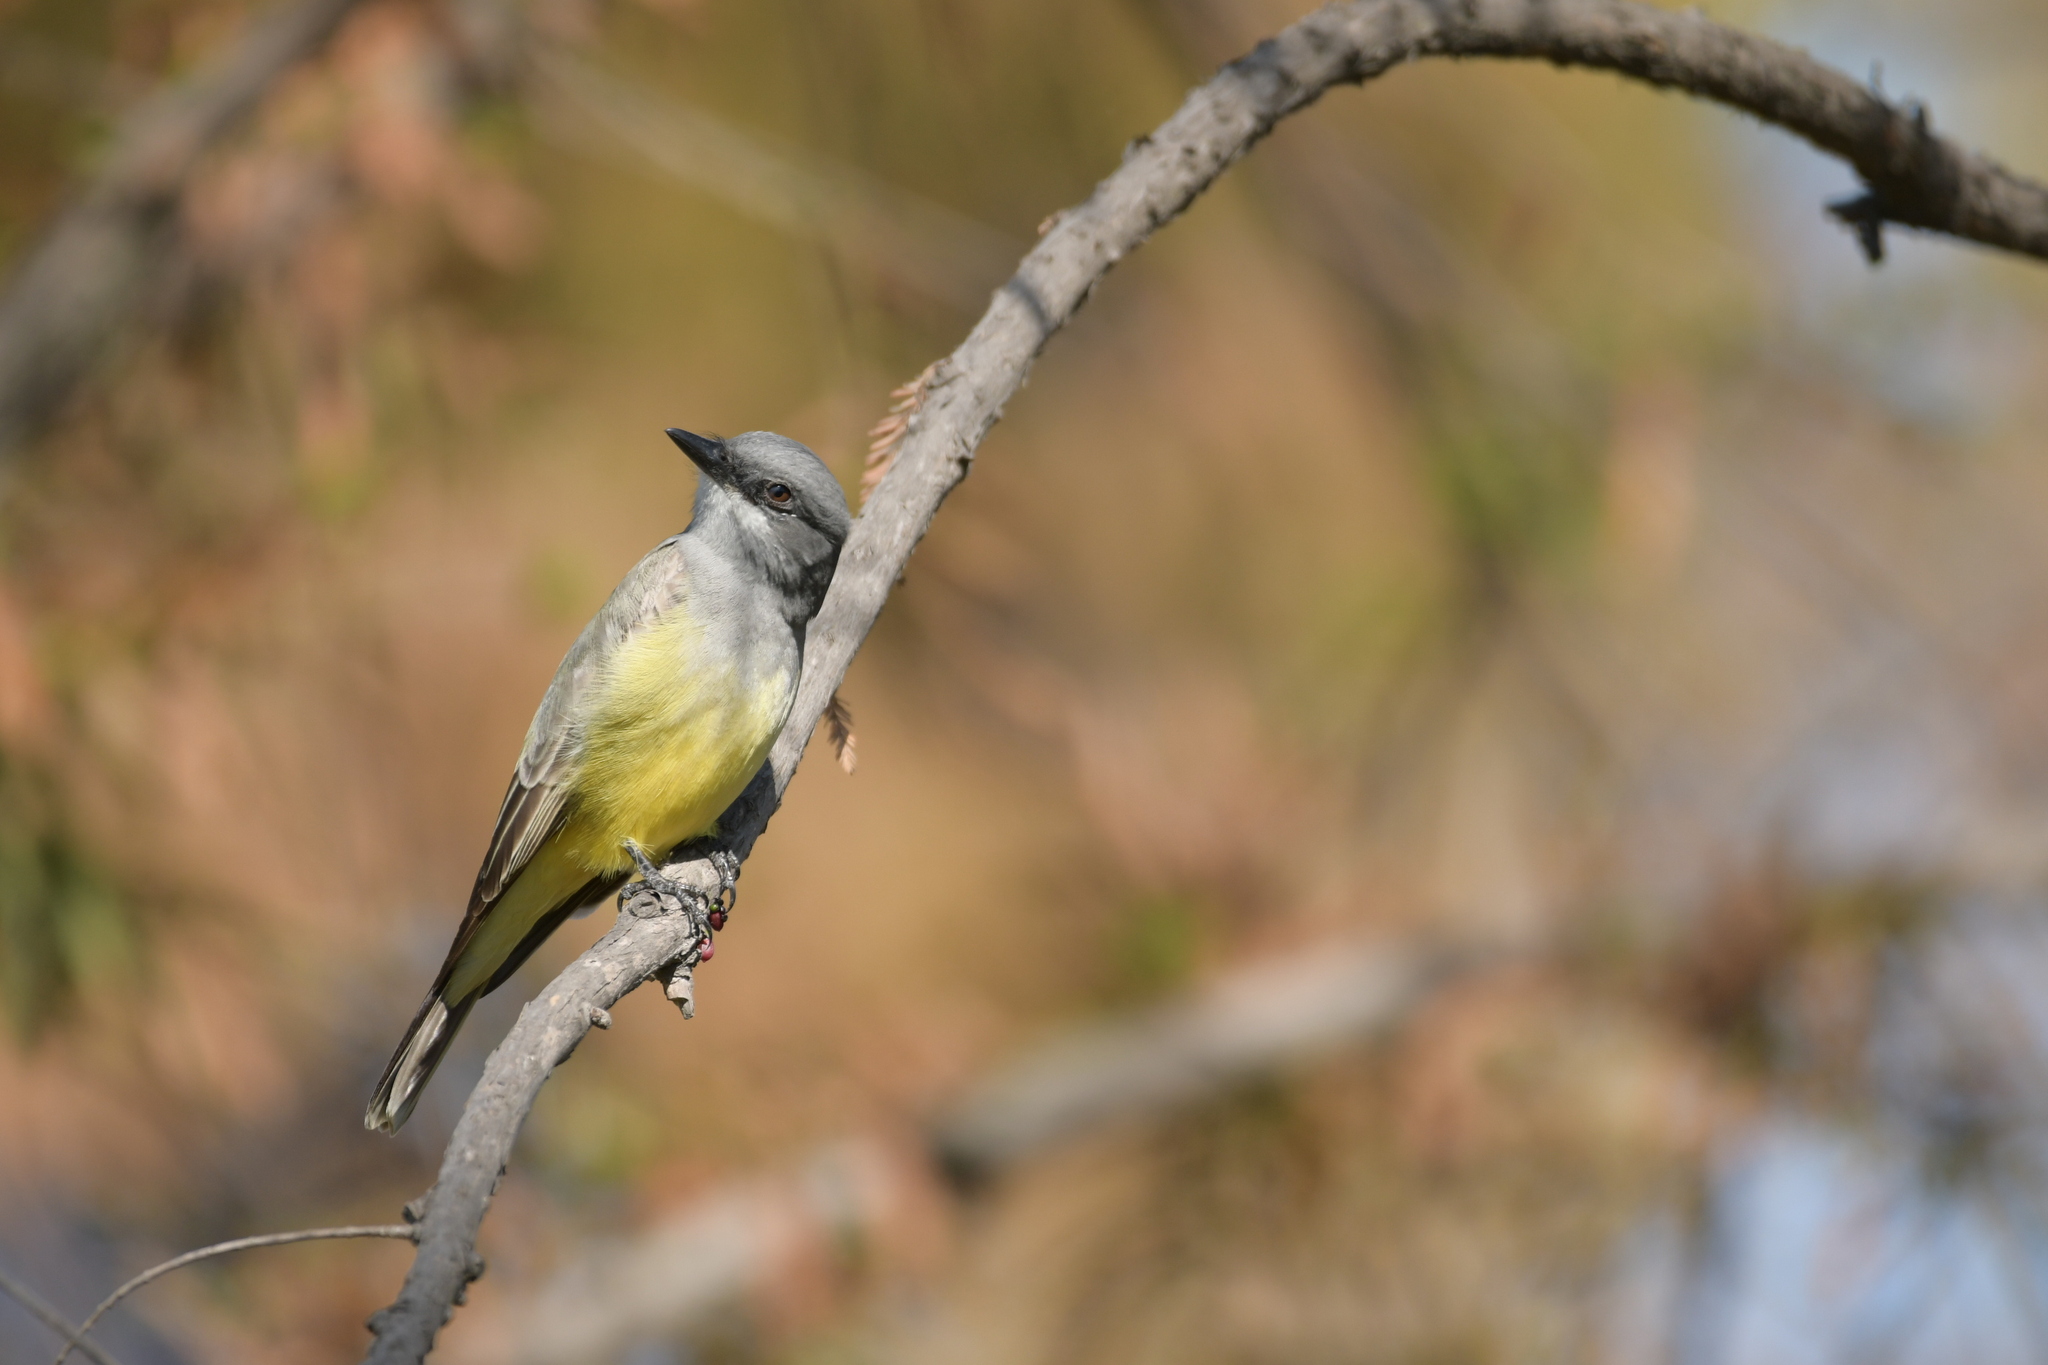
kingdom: Animalia
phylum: Chordata
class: Aves
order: Passeriformes
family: Tyrannidae
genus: Tyrannus
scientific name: Tyrannus vociferans
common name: Cassin's kingbird
